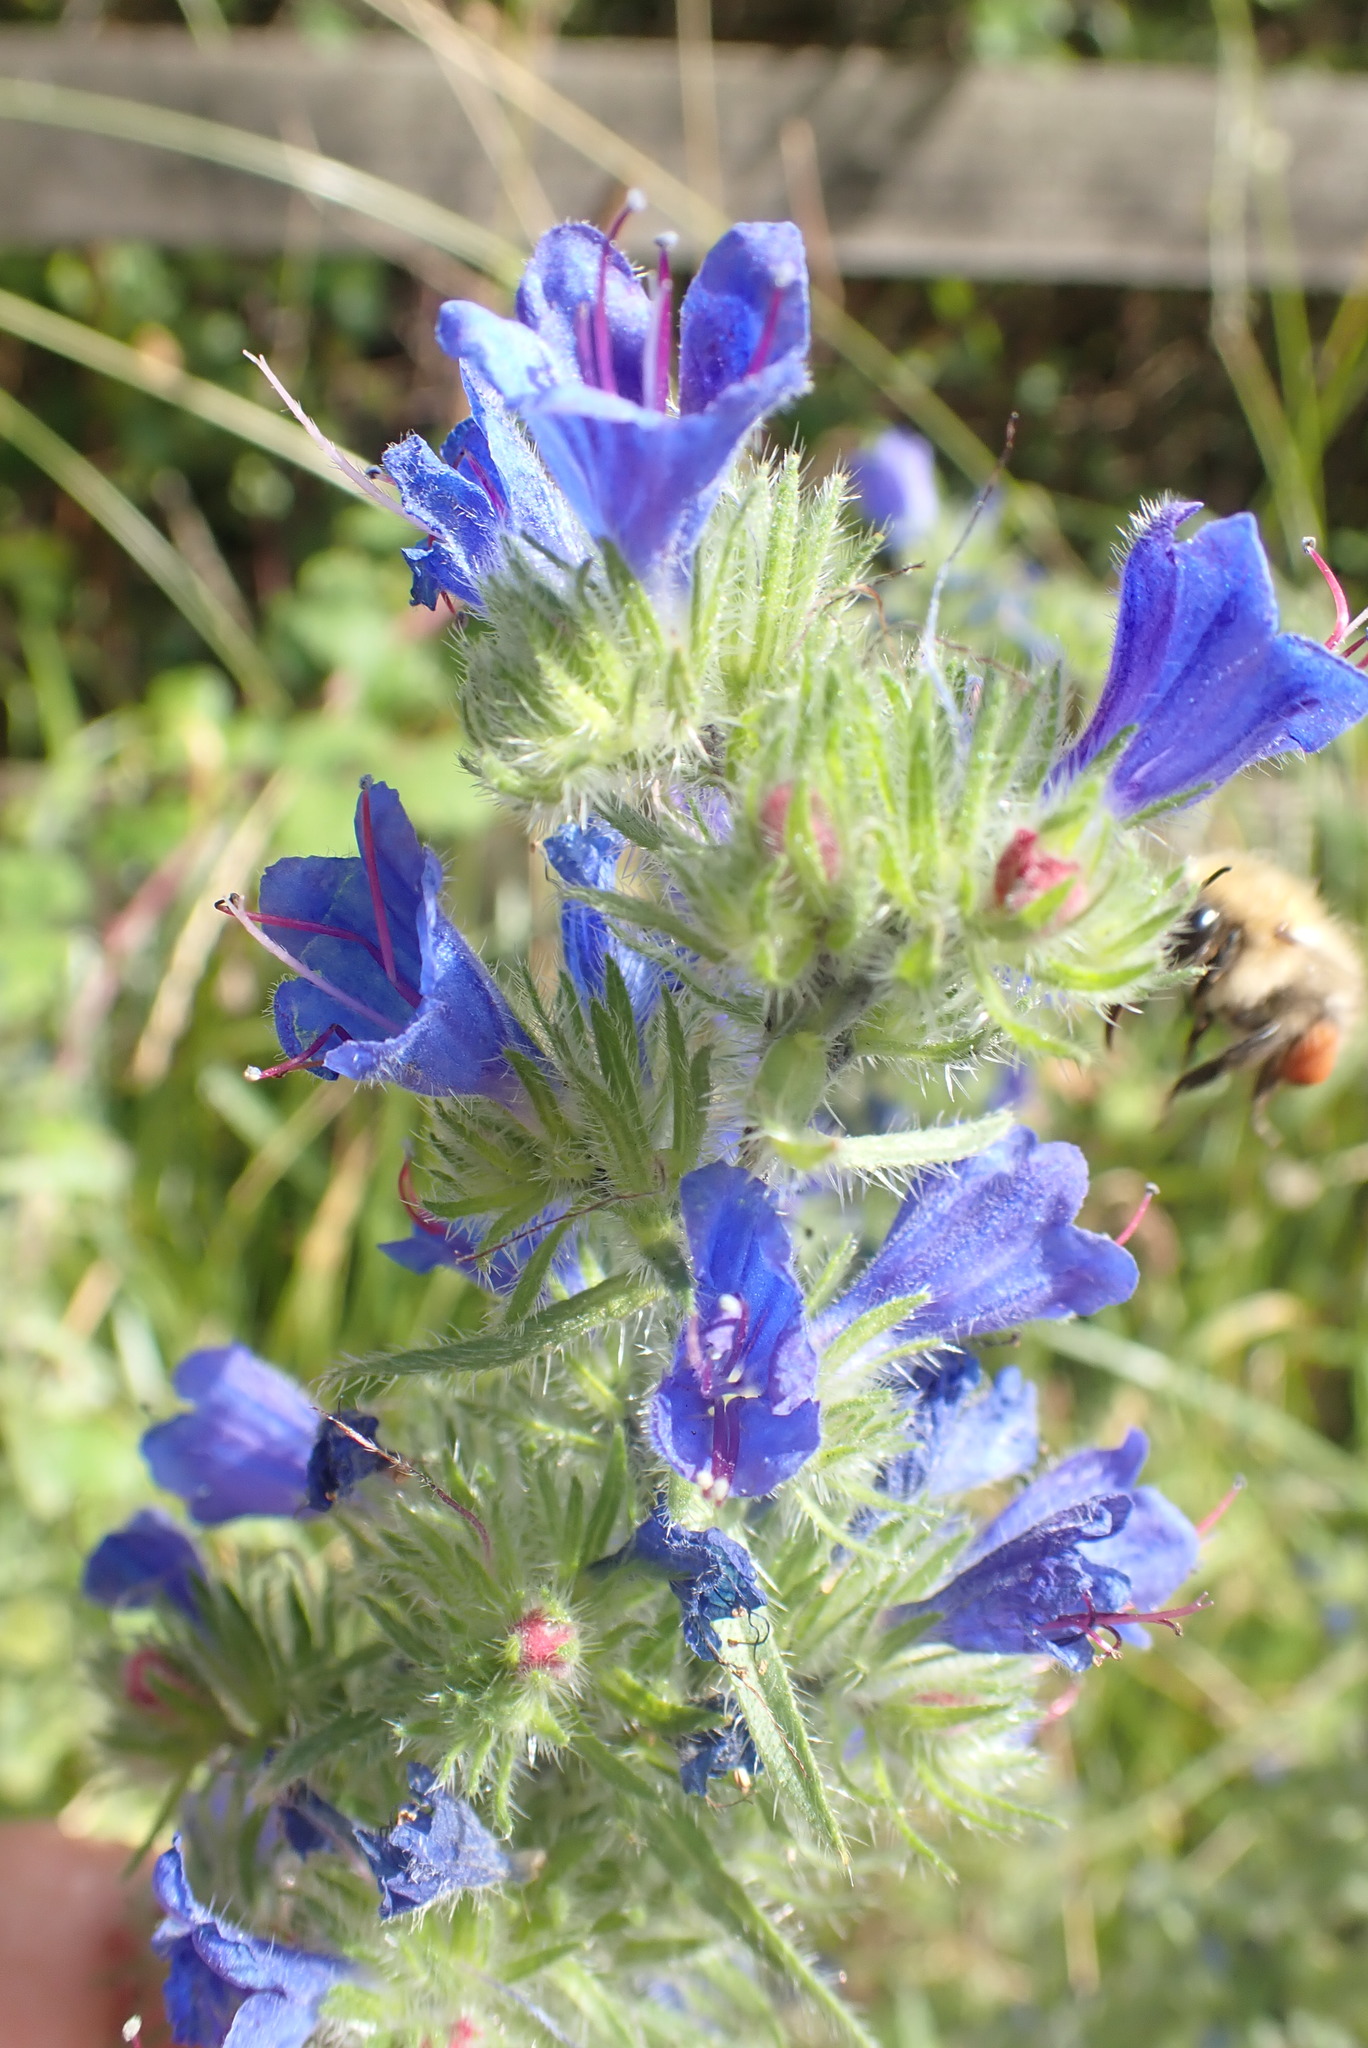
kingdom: Plantae
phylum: Tracheophyta
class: Magnoliopsida
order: Boraginales
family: Boraginaceae
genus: Echium
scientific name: Echium vulgare
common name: Common viper's bugloss
